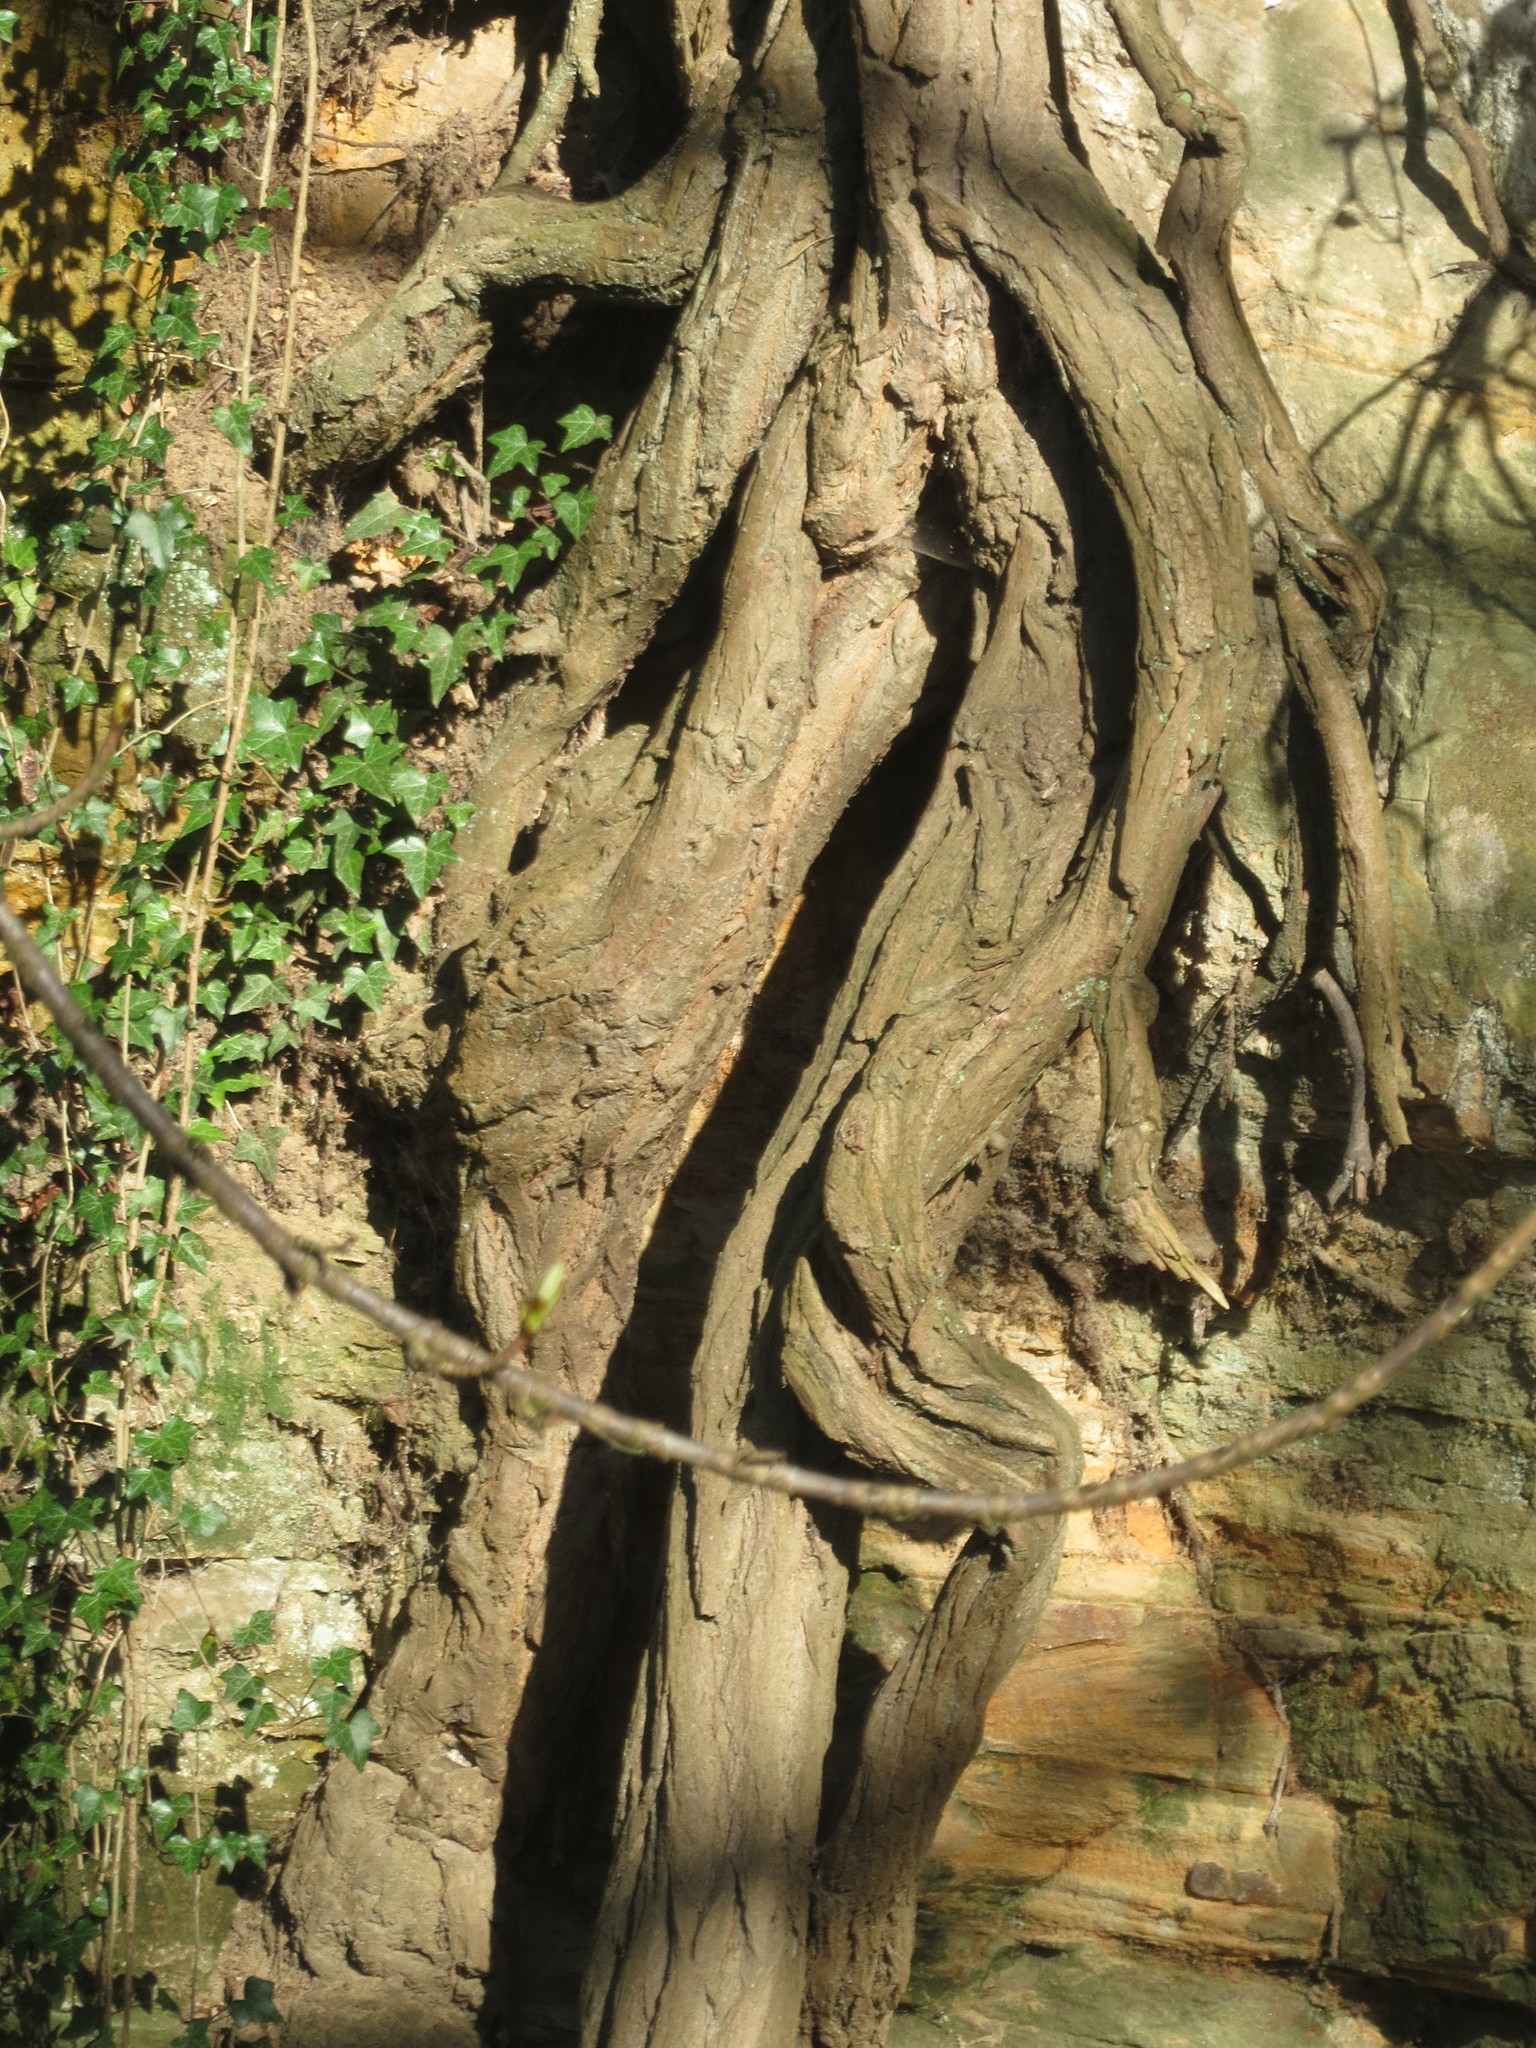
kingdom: Plantae
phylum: Tracheophyta
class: Magnoliopsida
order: Fabales
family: Fabaceae
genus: Robinia
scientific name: Robinia pseudoacacia
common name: Black locust
